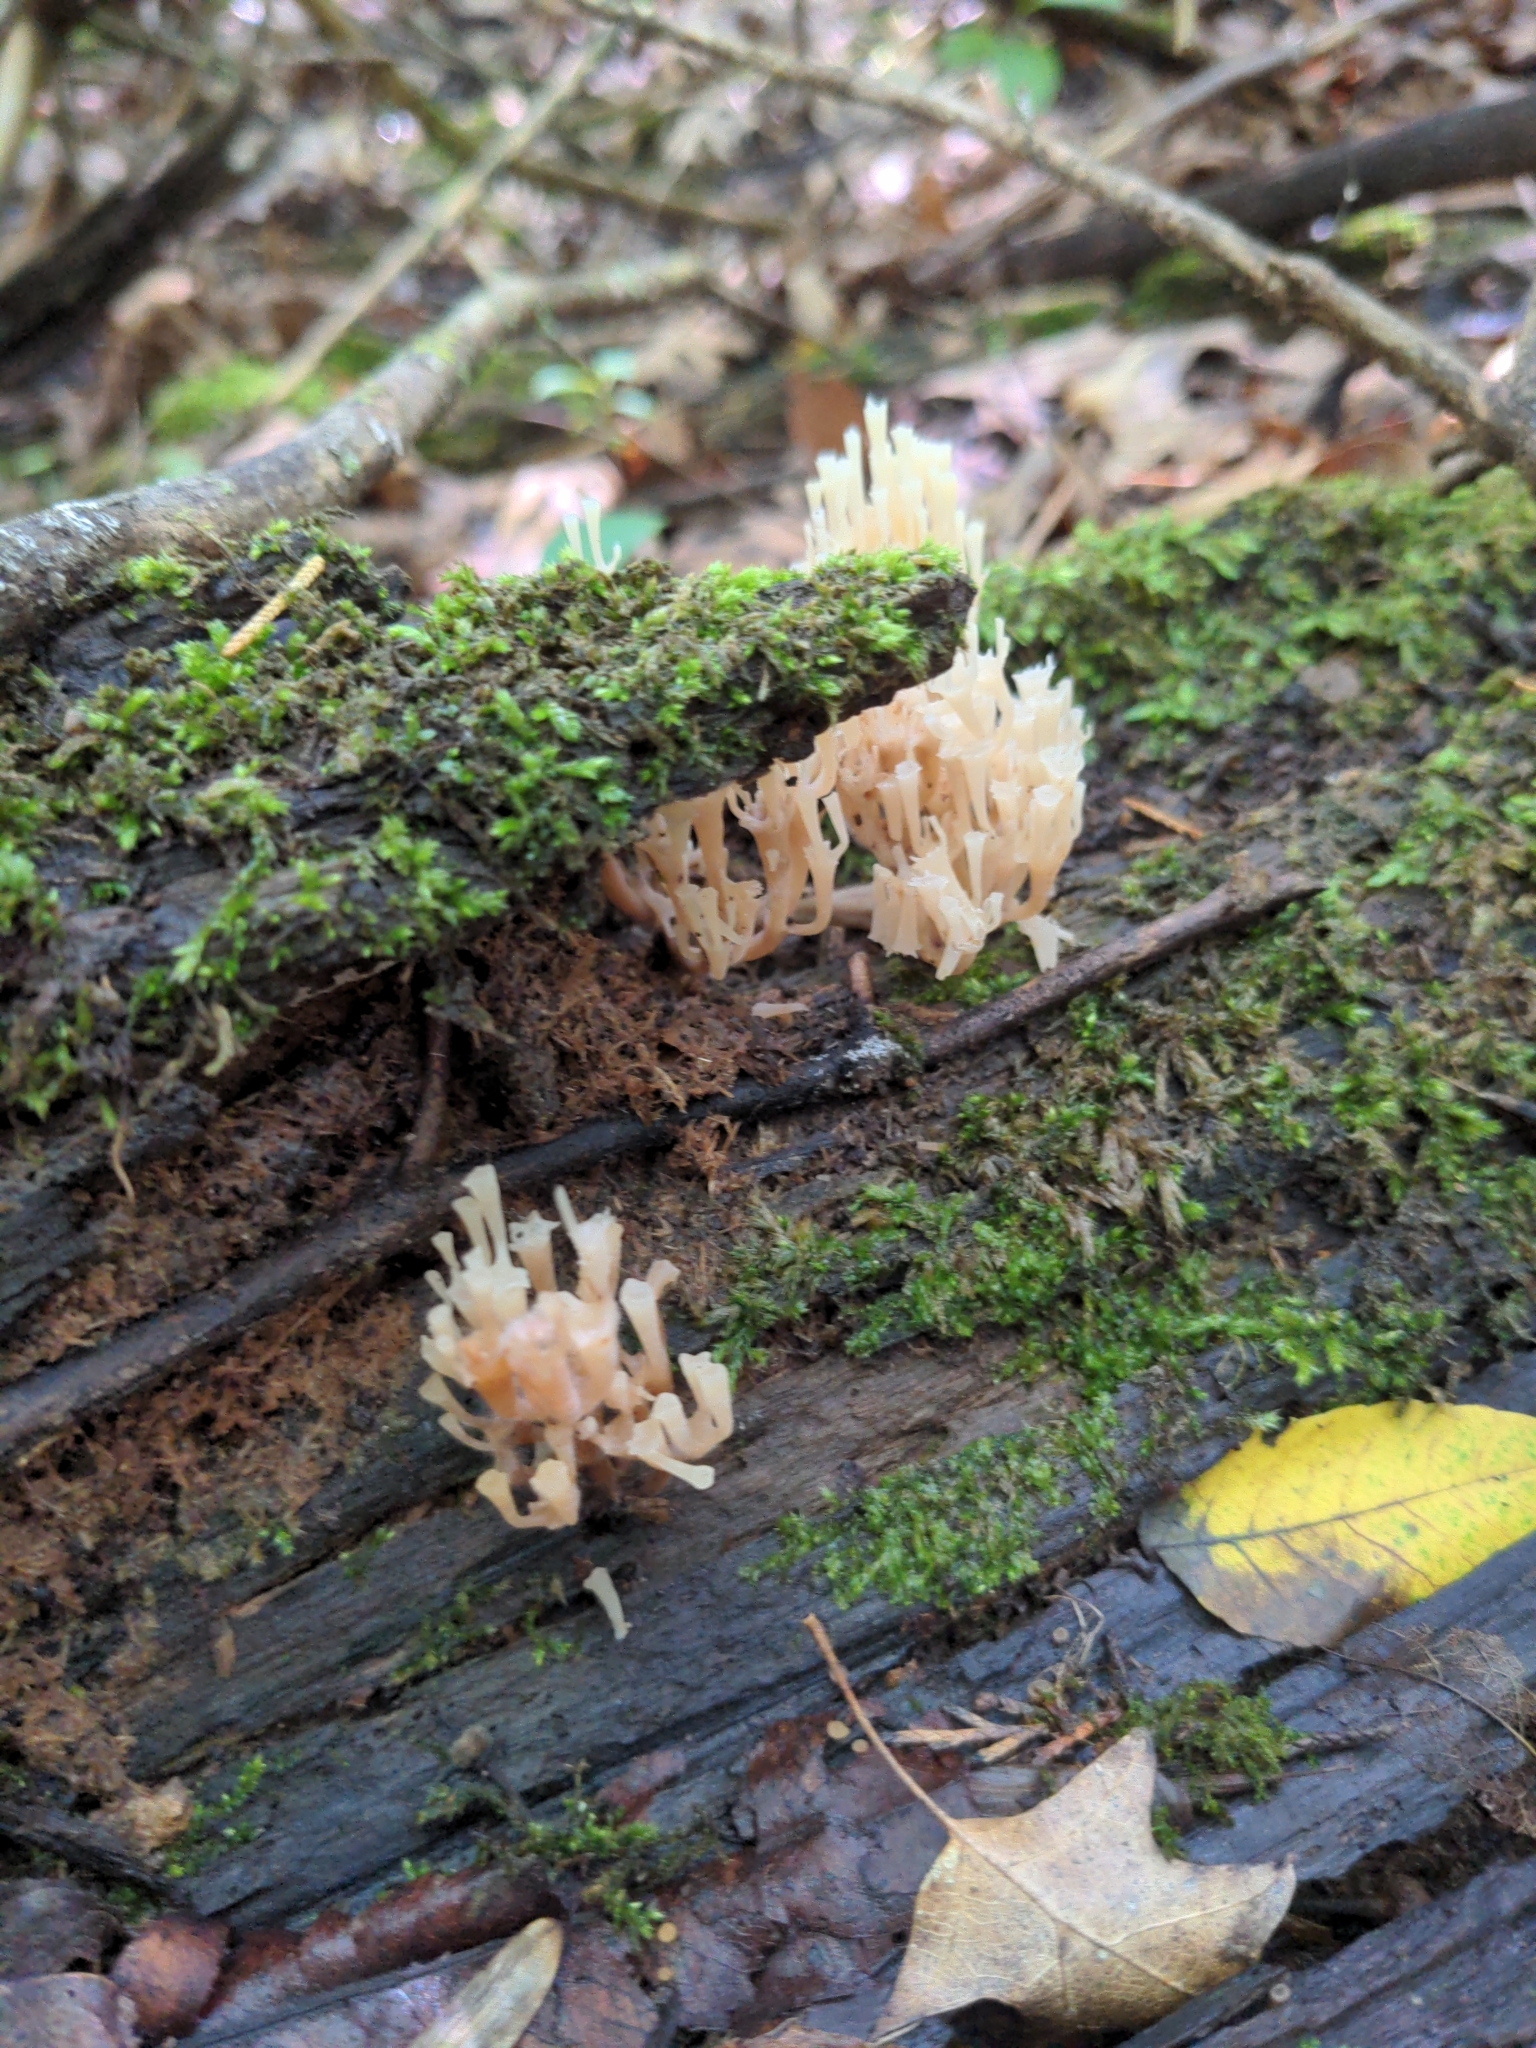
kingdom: Fungi
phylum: Basidiomycota
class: Agaricomycetes
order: Russulales
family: Auriscalpiaceae
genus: Artomyces
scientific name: Artomyces pyxidatus
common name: Crown-tipped coral fungus
